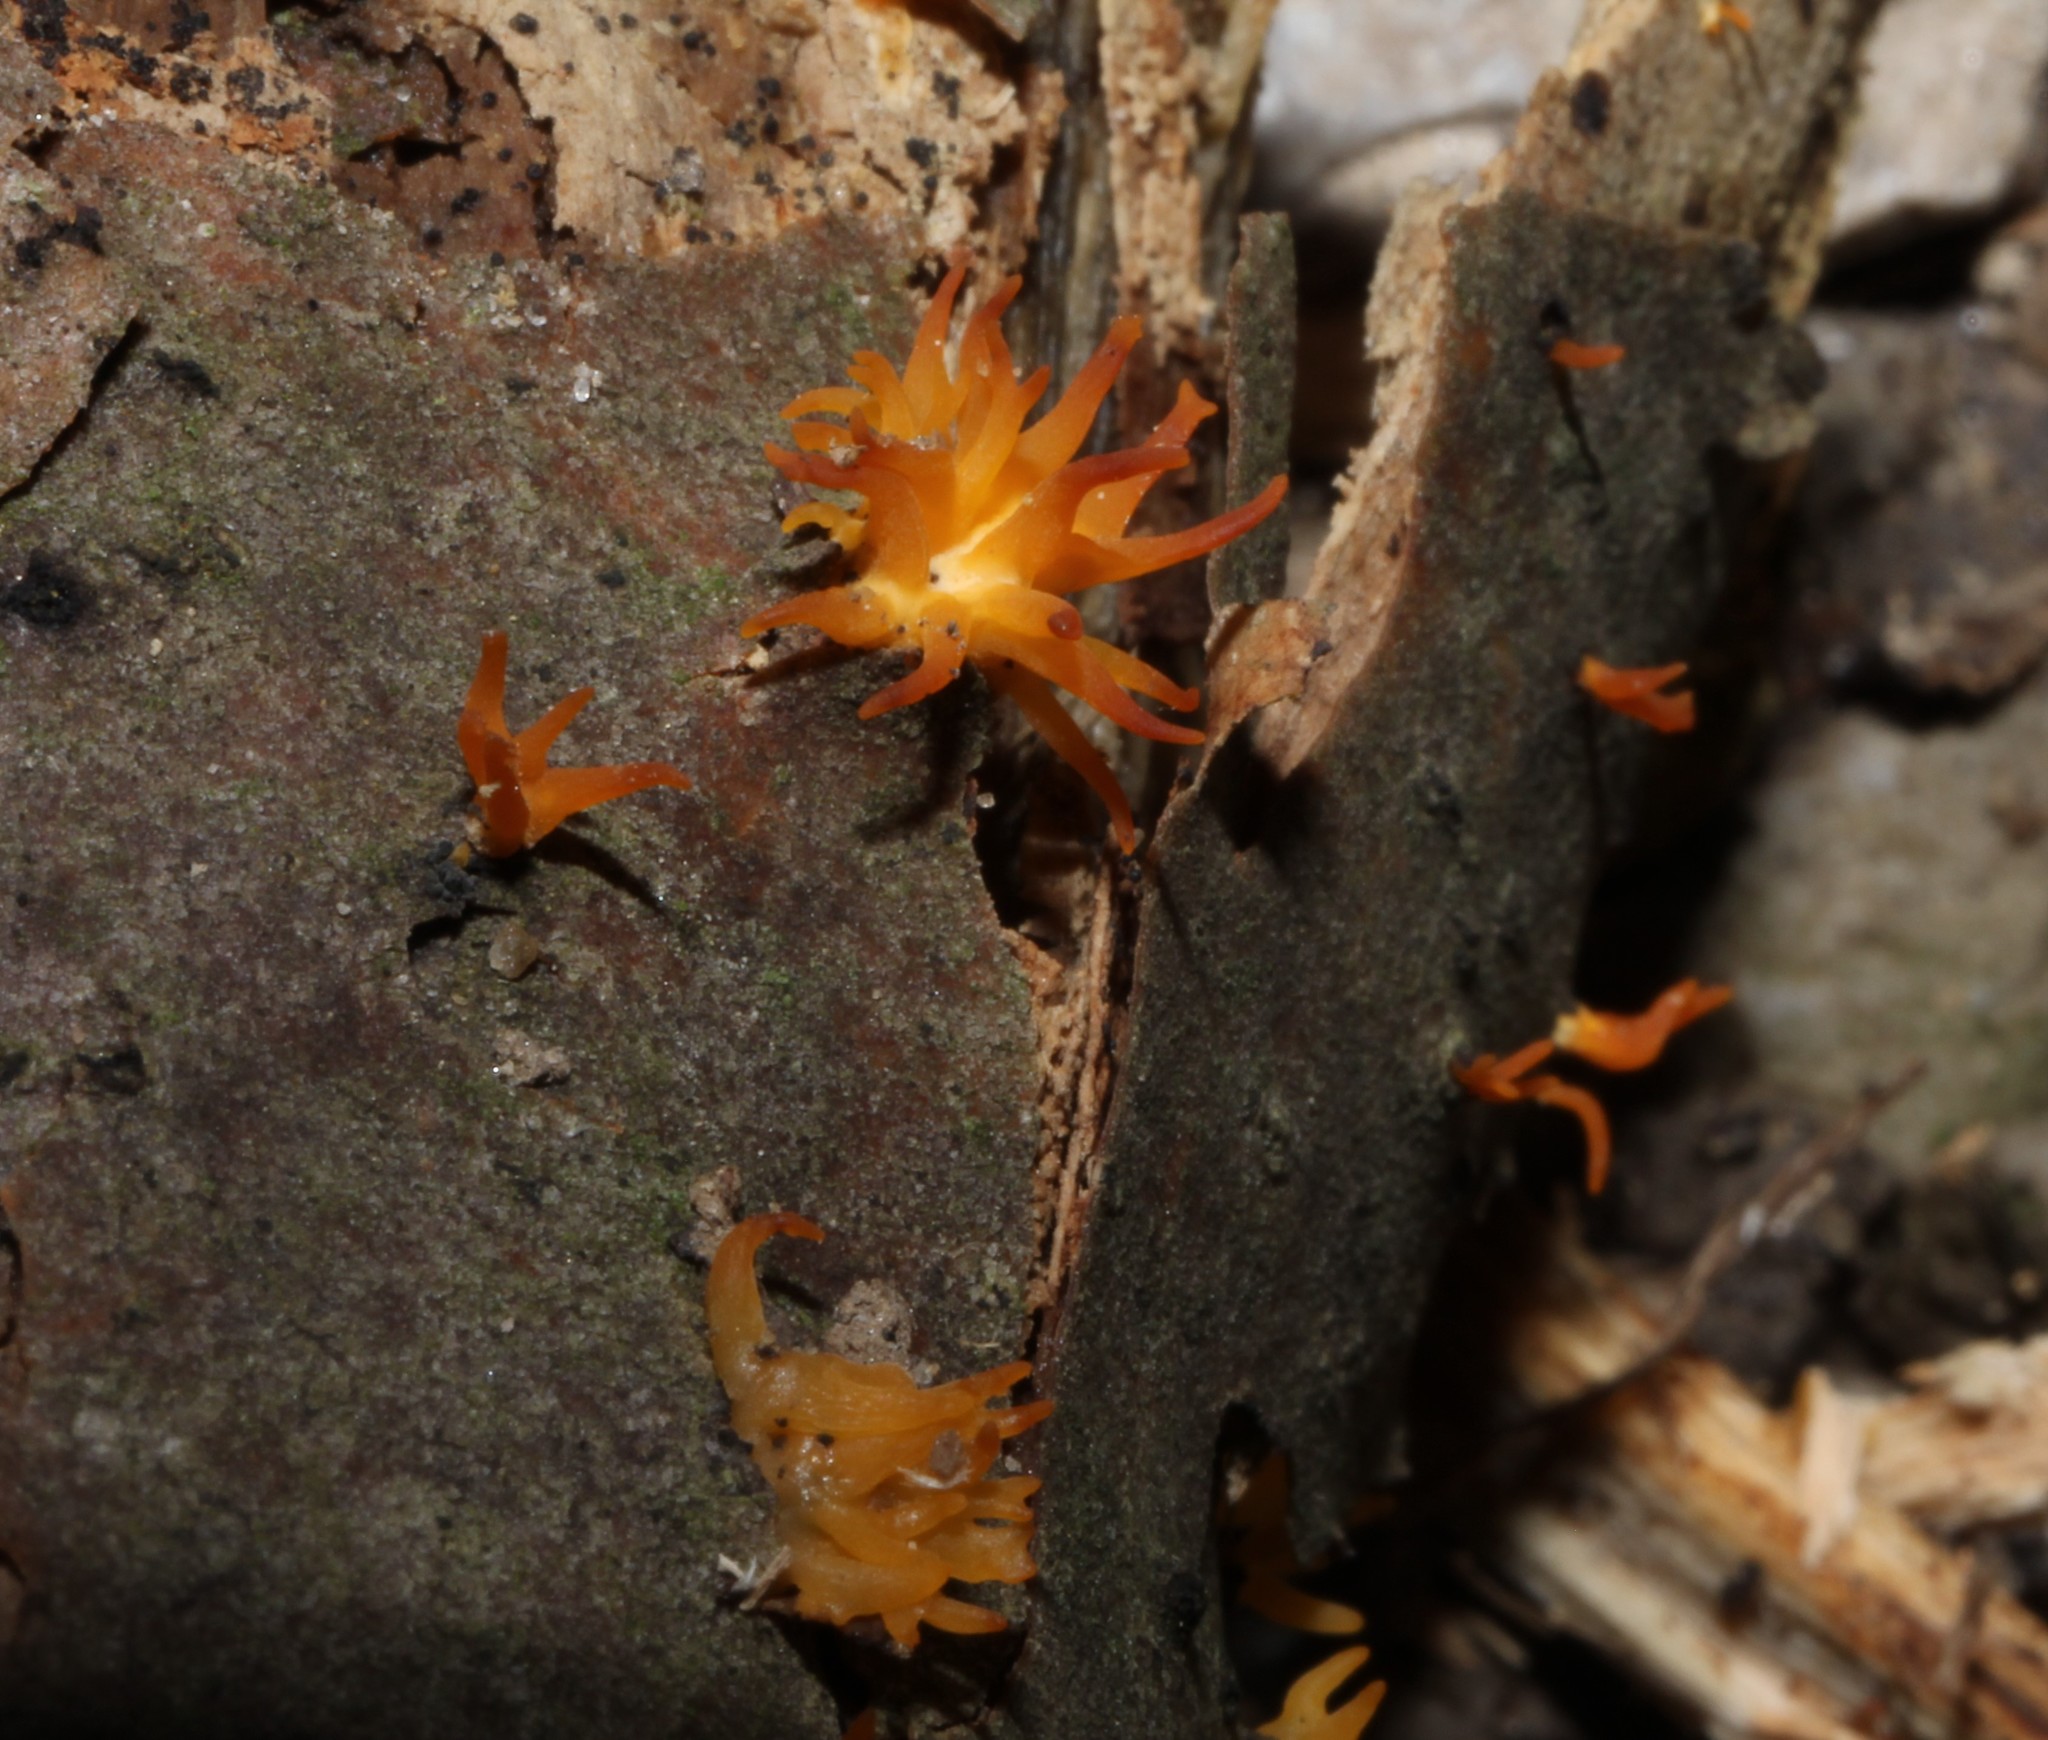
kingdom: Fungi
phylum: Basidiomycota
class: Dacrymycetes
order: Dacrymycetales
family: Dacrymycetaceae
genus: Calocera
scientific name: Calocera cornea
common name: Small stagshorn
